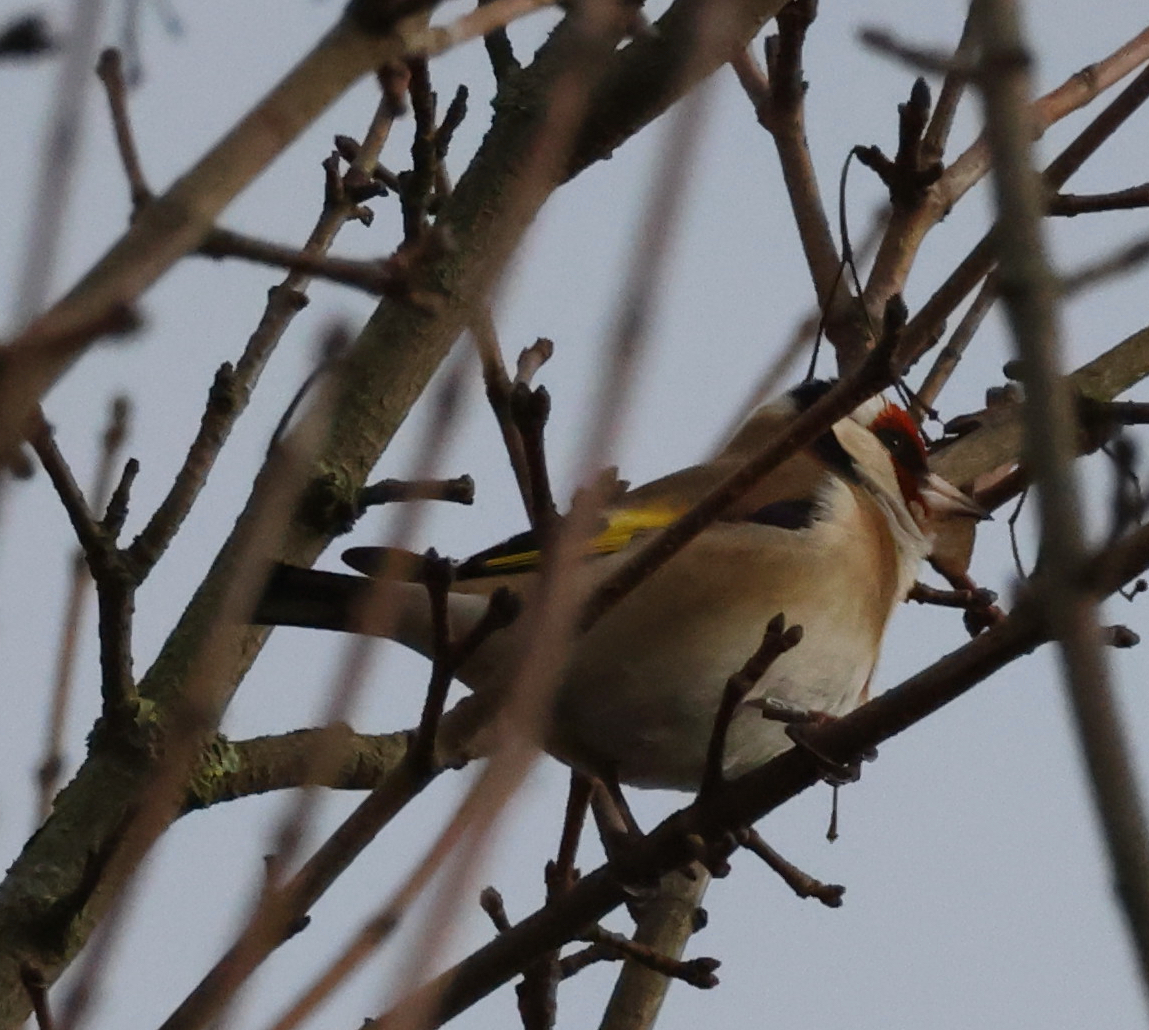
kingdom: Animalia
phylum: Chordata
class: Aves
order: Passeriformes
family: Fringillidae
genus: Carduelis
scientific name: Carduelis carduelis
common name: European goldfinch
